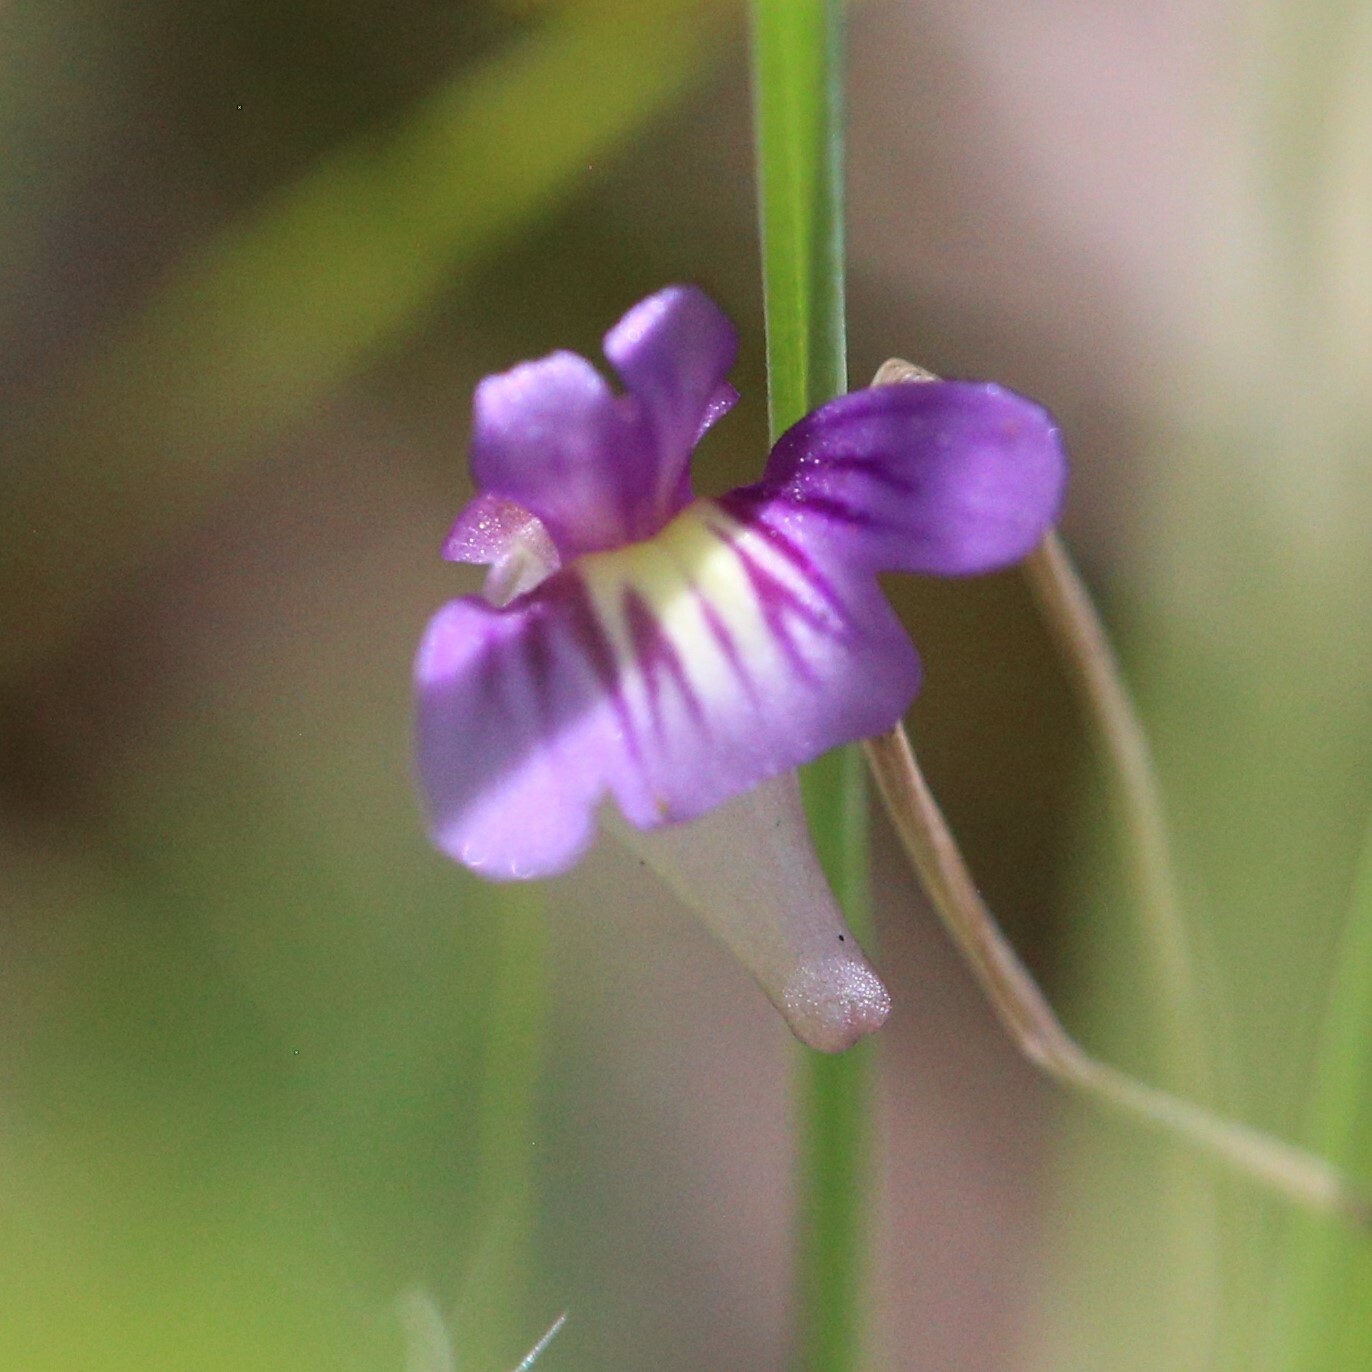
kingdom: Plantae
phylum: Tracheophyta
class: Magnoliopsida
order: Lamiales
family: Lentibulariaceae
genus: Utricularia
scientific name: Utricularia violacea
